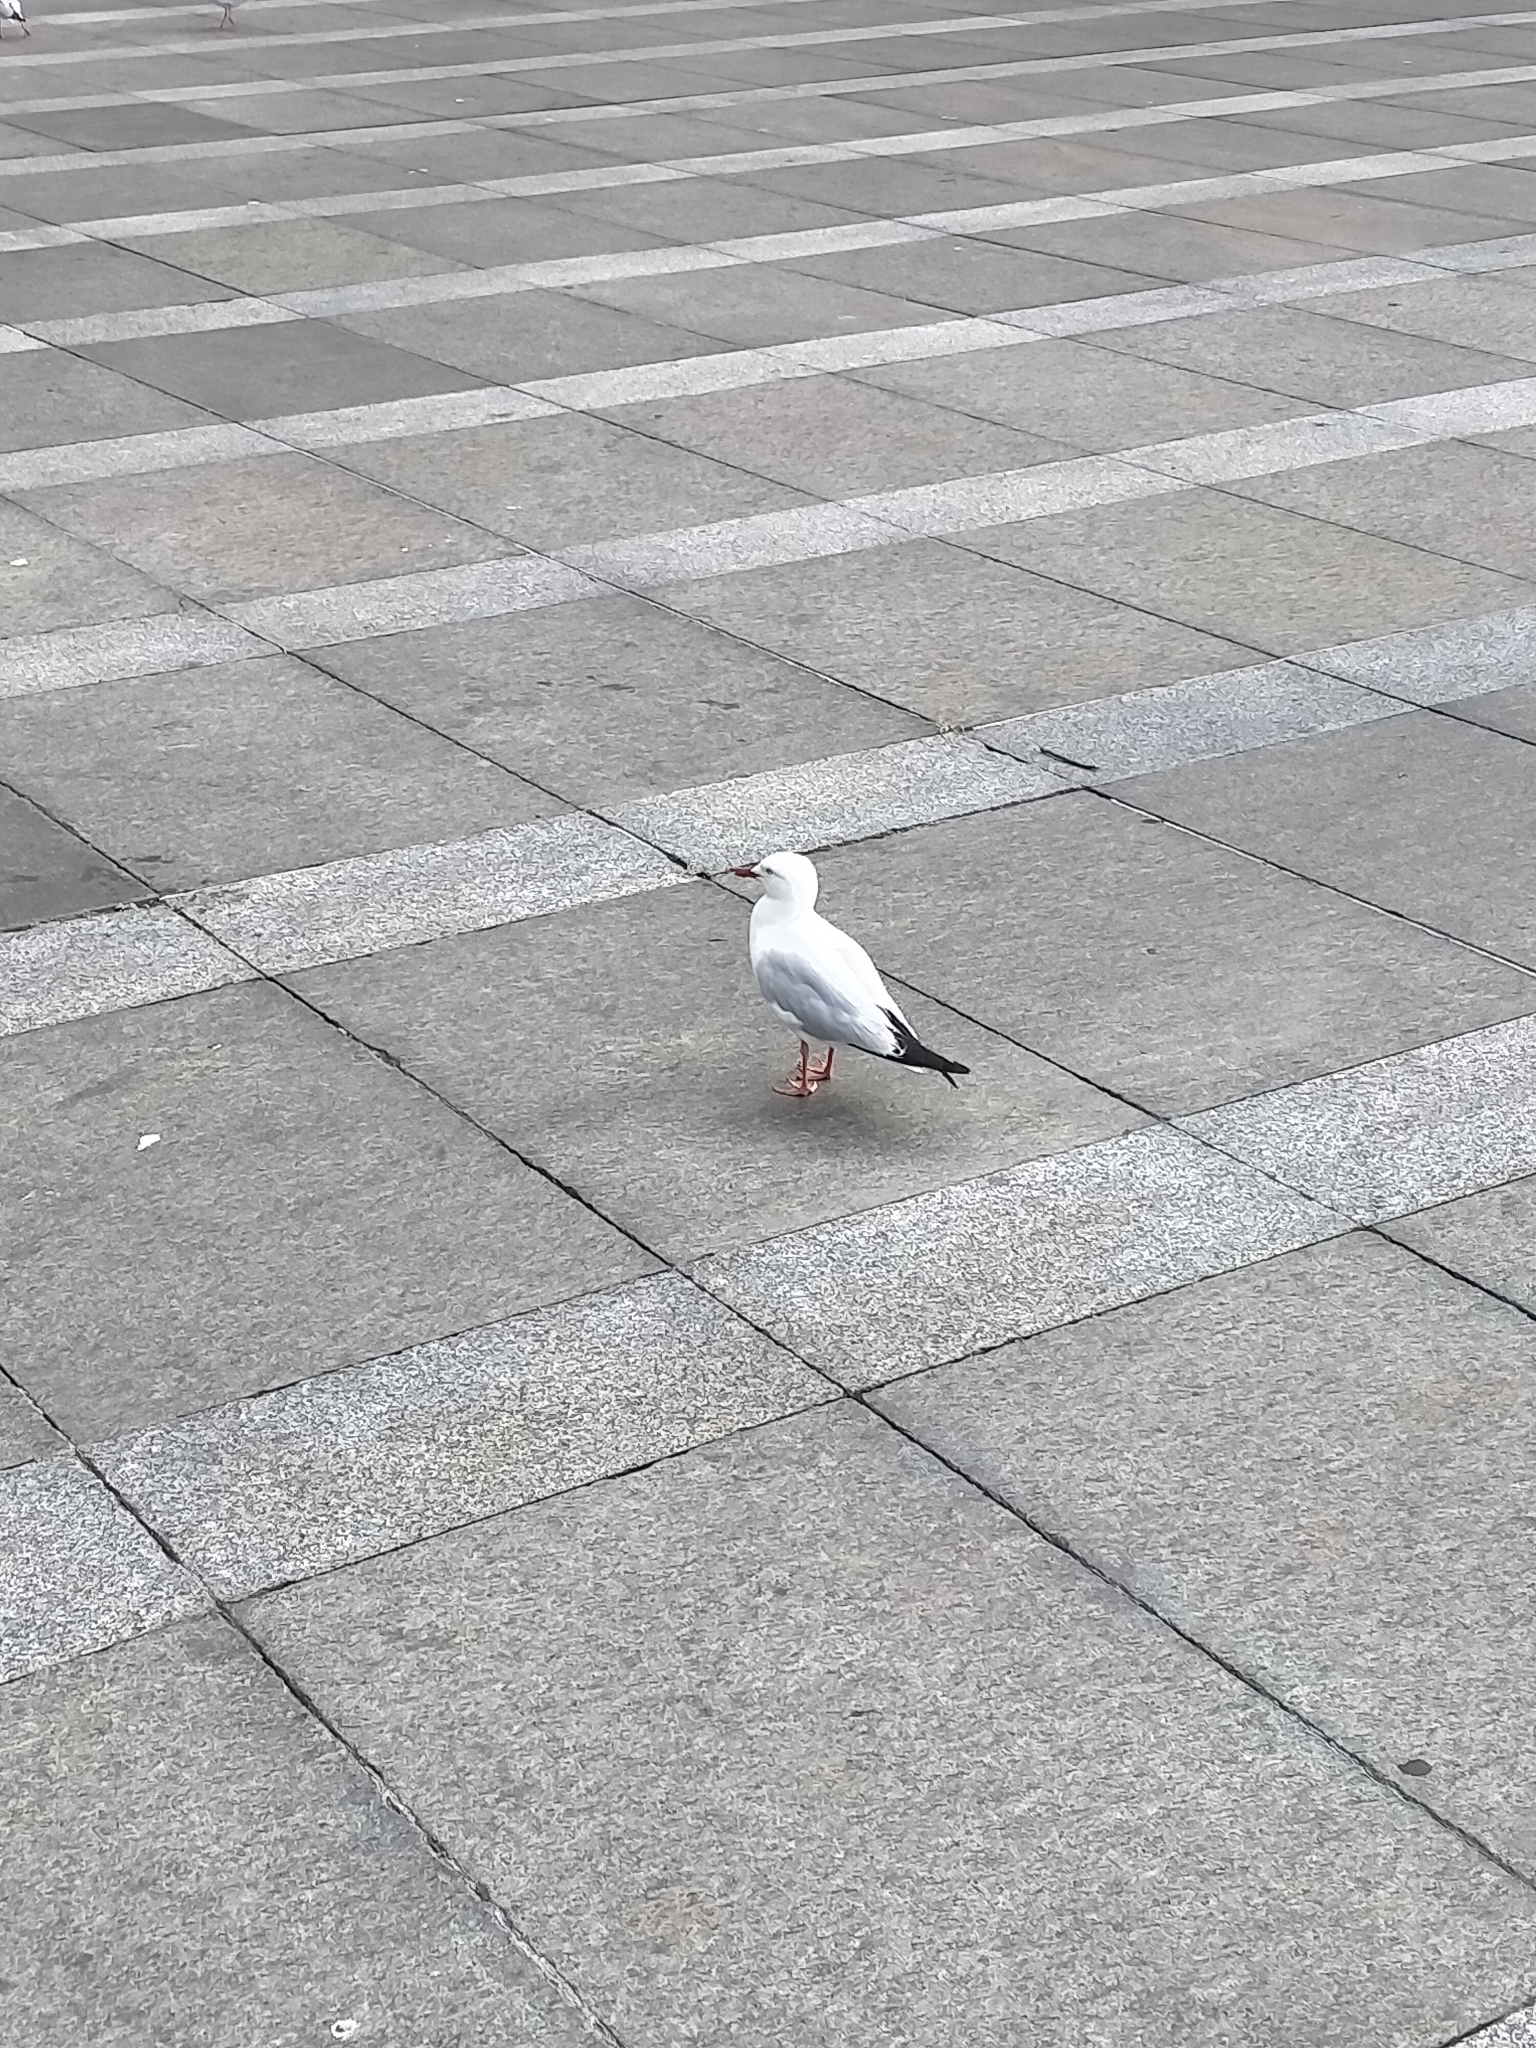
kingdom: Animalia
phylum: Chordata
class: Aves
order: Charadriiformes
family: Laridae
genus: Chroicocephalus
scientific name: Chroicocephalus novaehollandiae
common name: Silver gull
